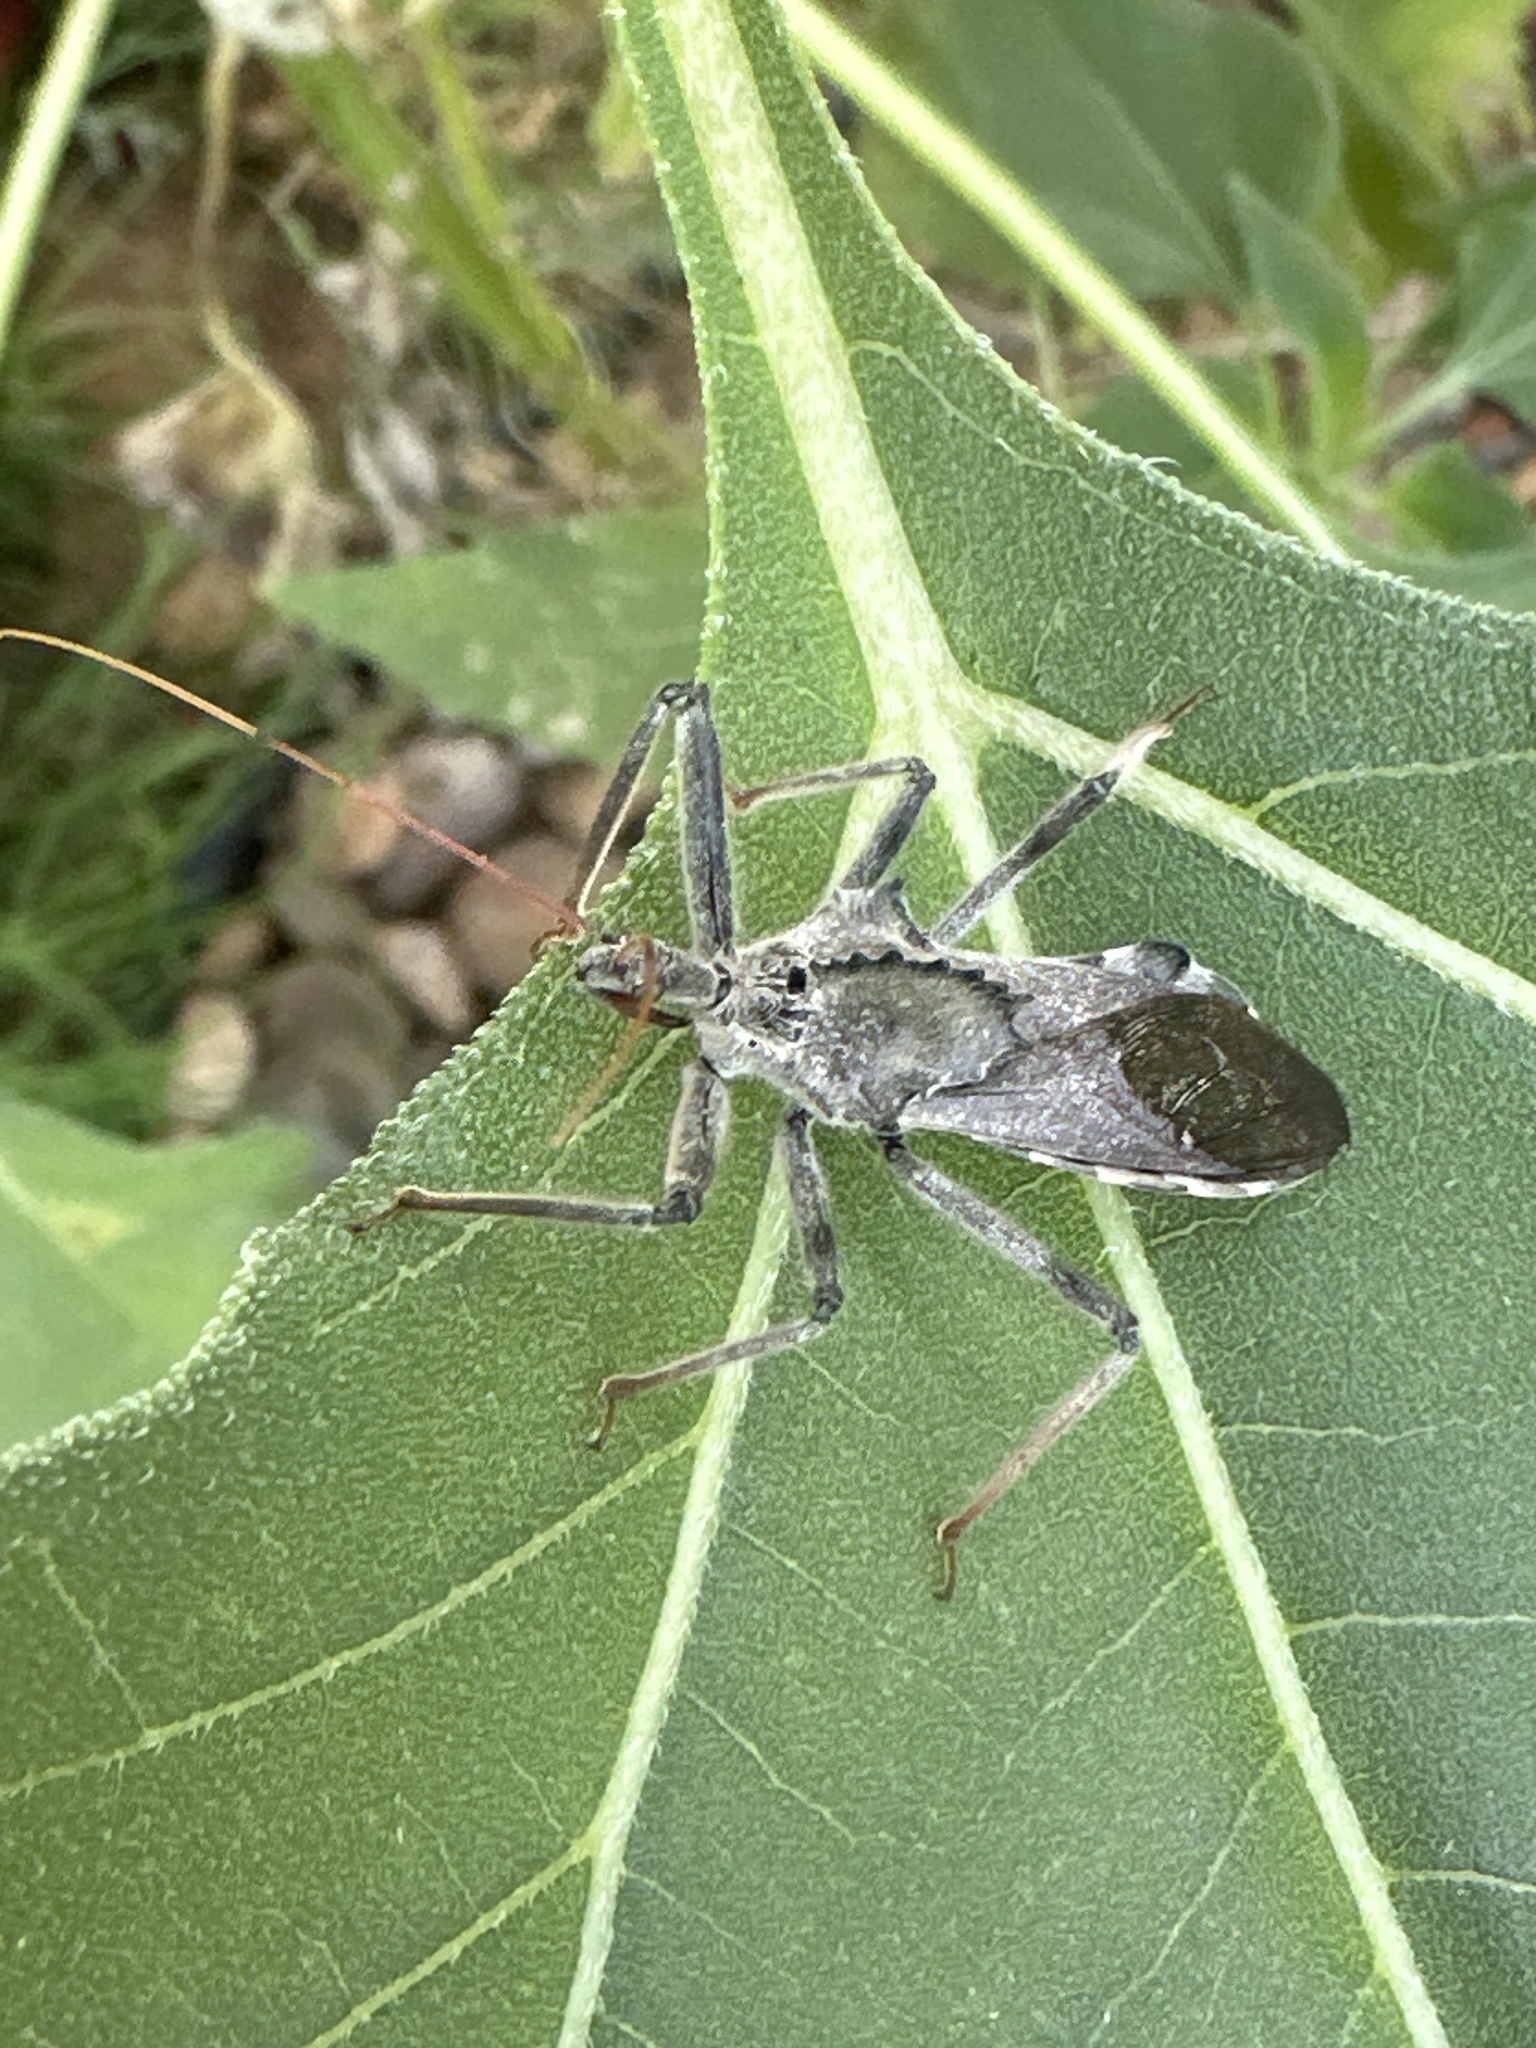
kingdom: Animalia
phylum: Arthropoda
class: Insecta
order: Hemiptera
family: Reduviidae
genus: Arilus
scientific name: Arilus cristatus
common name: North american wheel bug
